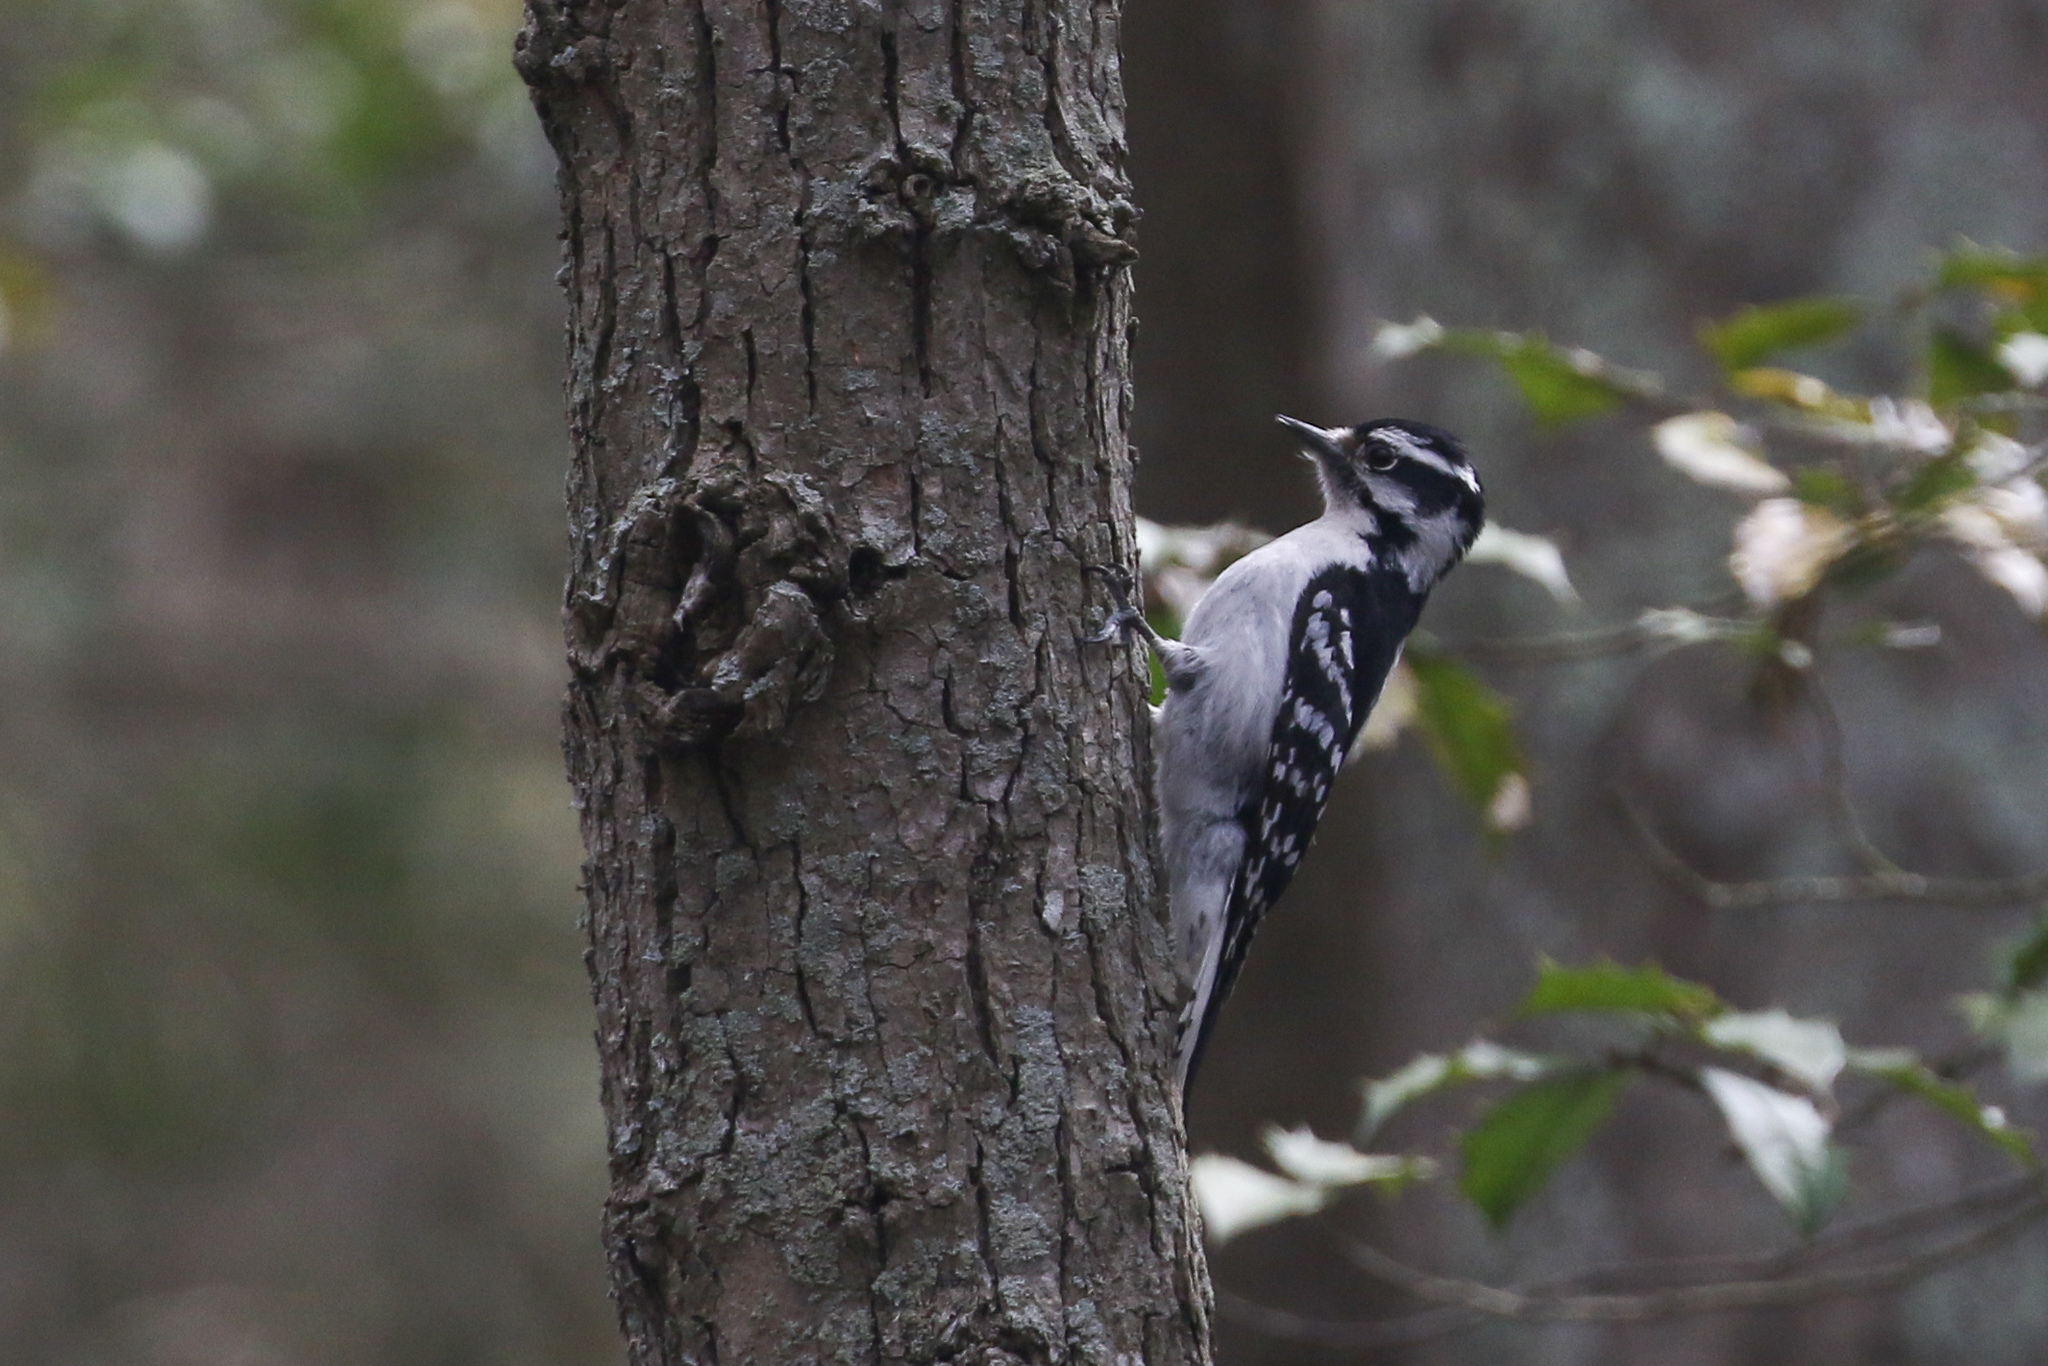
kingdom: Animalia
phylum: Chordata
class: Aves
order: Piciformes
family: Picidae
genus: Dryobates
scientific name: Dryobates pubescens
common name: Downy woodpecker
